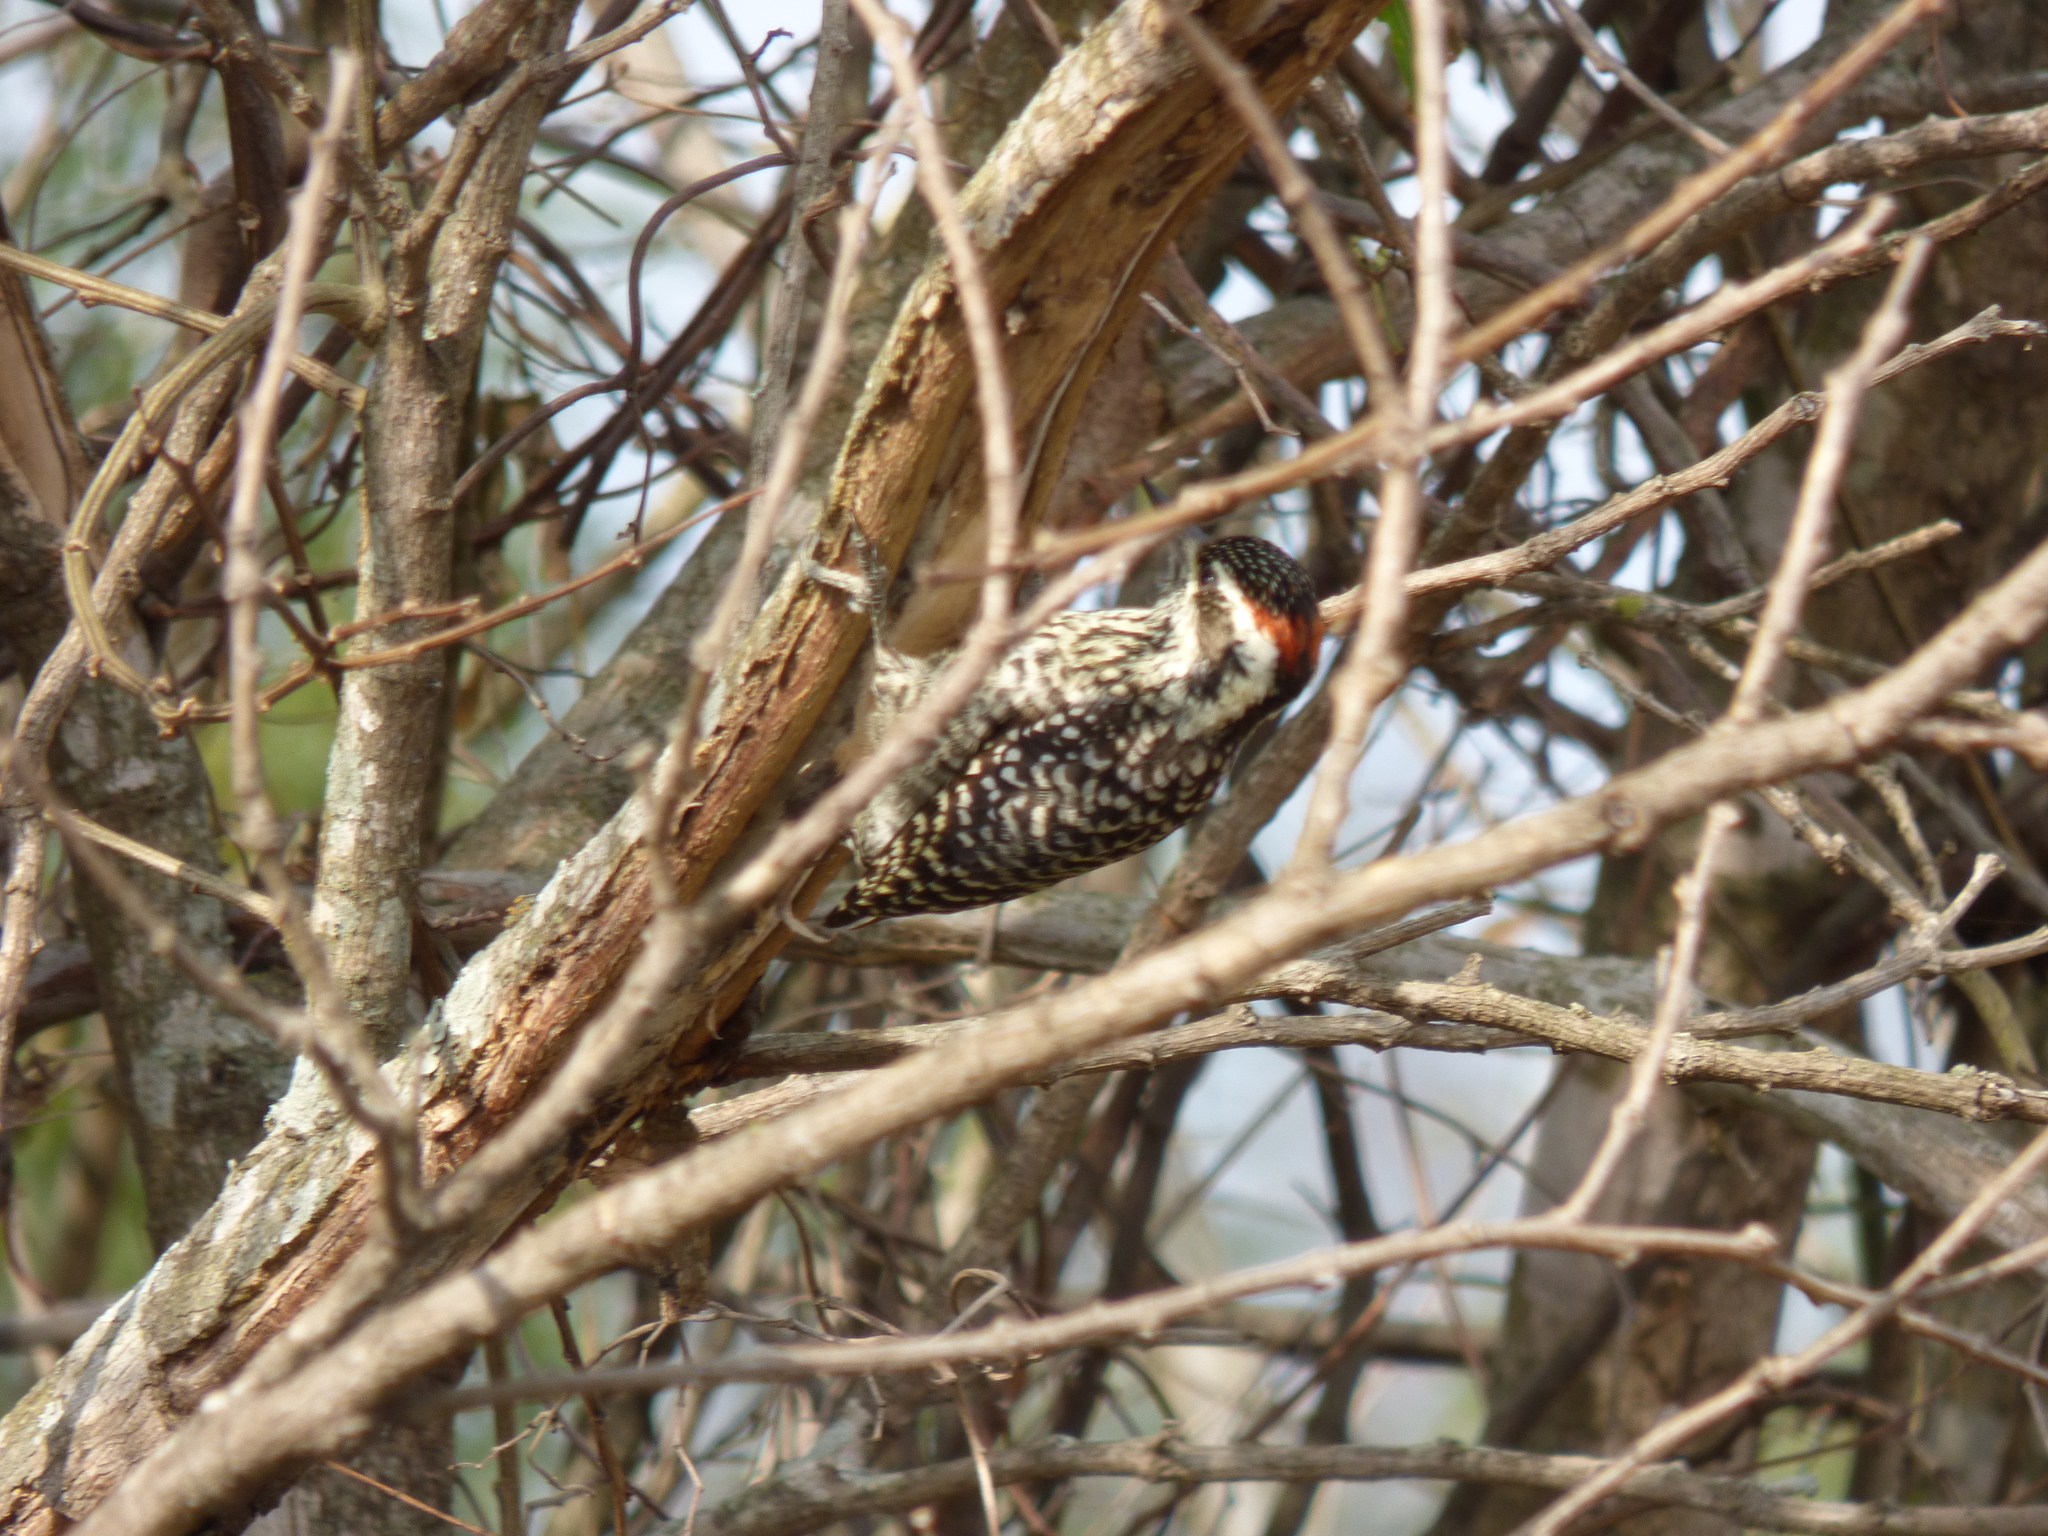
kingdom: Animalia
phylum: Chordata
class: Aves
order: Piciformes
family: Picidae
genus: Veniliornis
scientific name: Veniliornis mixtus
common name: Checkered woodpecker
